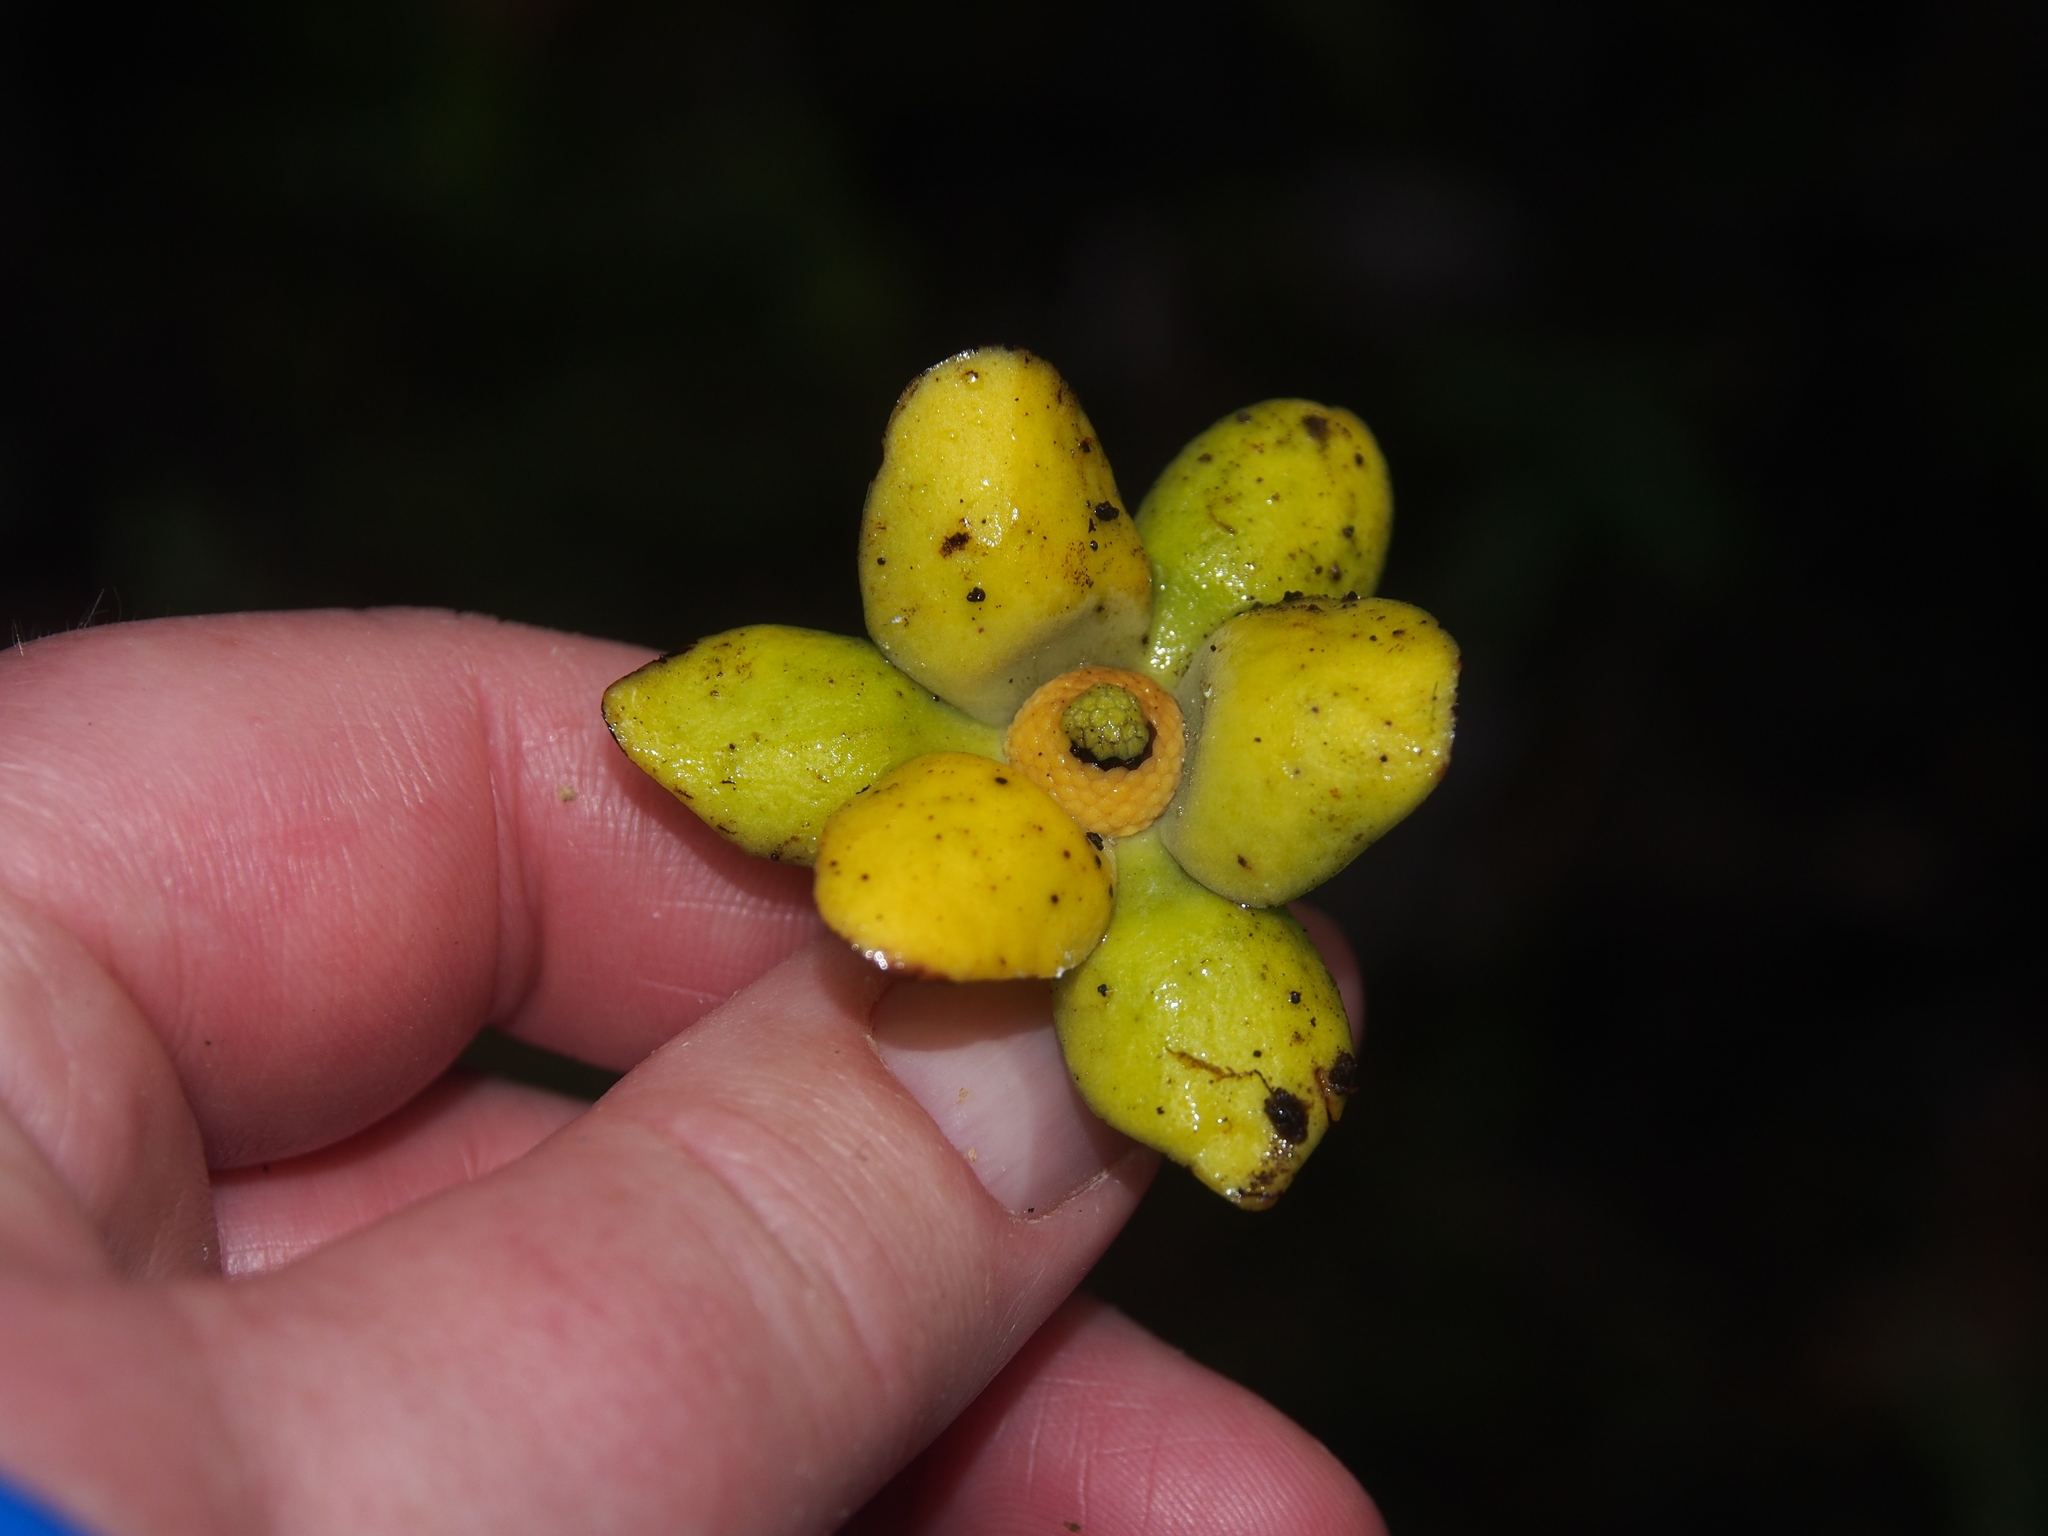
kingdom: Plantae
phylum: Tracheophyta
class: Magnoliopsida
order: Magnoliales
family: Annonaceae
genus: Guatteria
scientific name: Guatteria oliviformis
